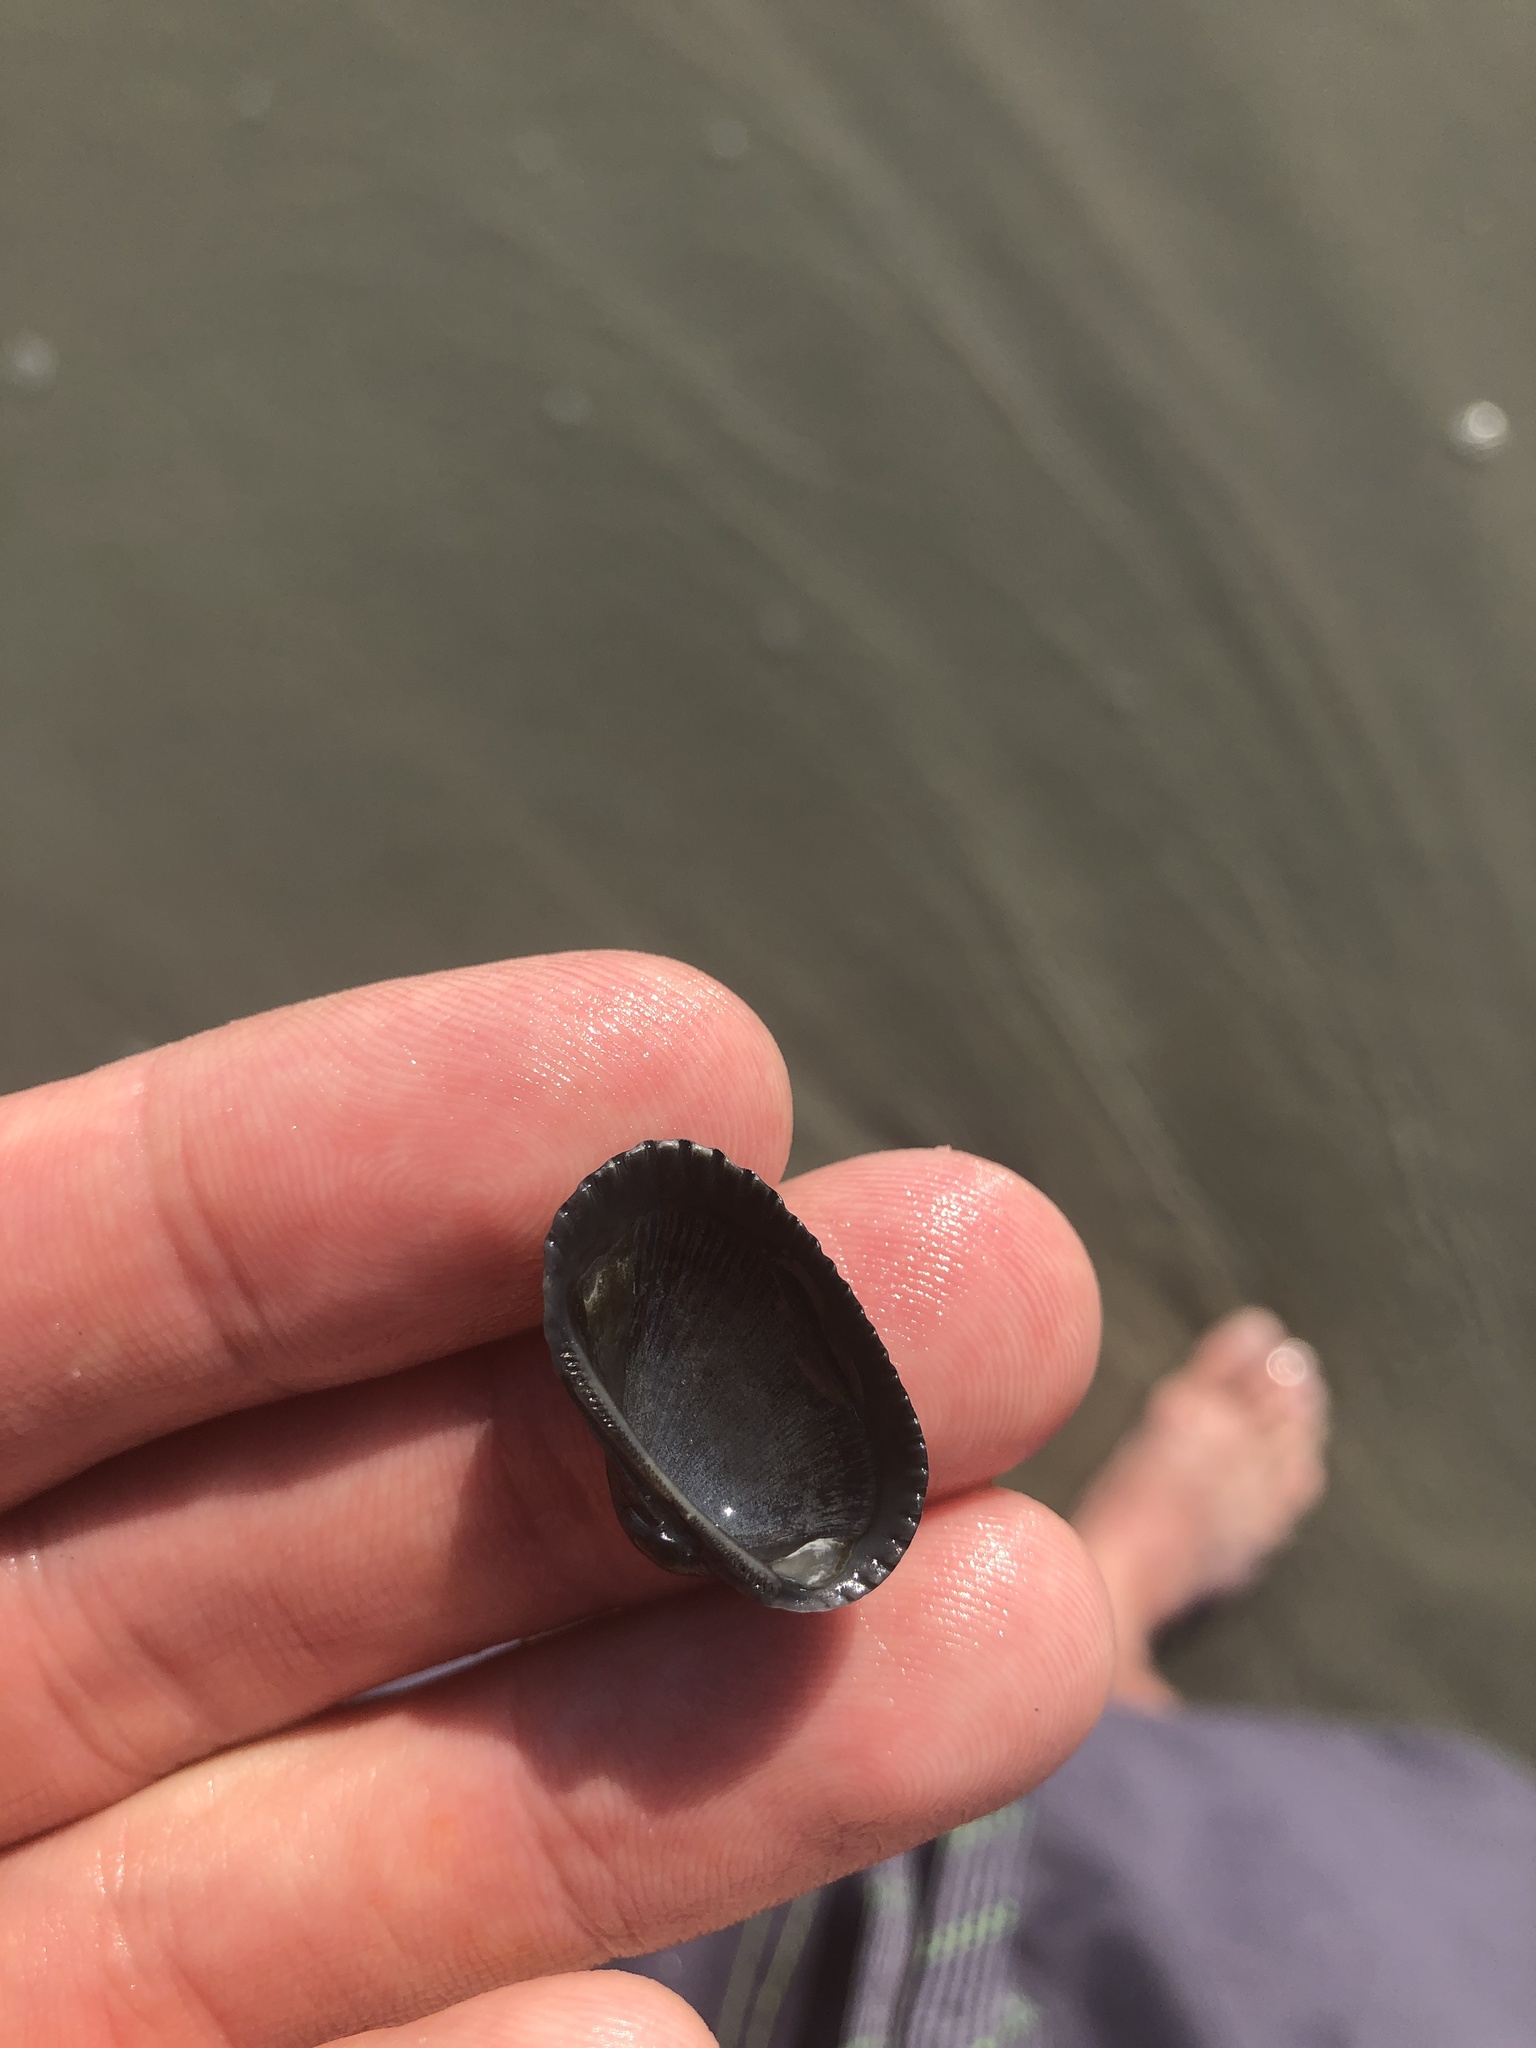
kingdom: Animalia
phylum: Mollusca
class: Bivalvia
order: Arcida
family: Arcidae
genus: Anadara
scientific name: Anadara transversa
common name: Transverse ark
